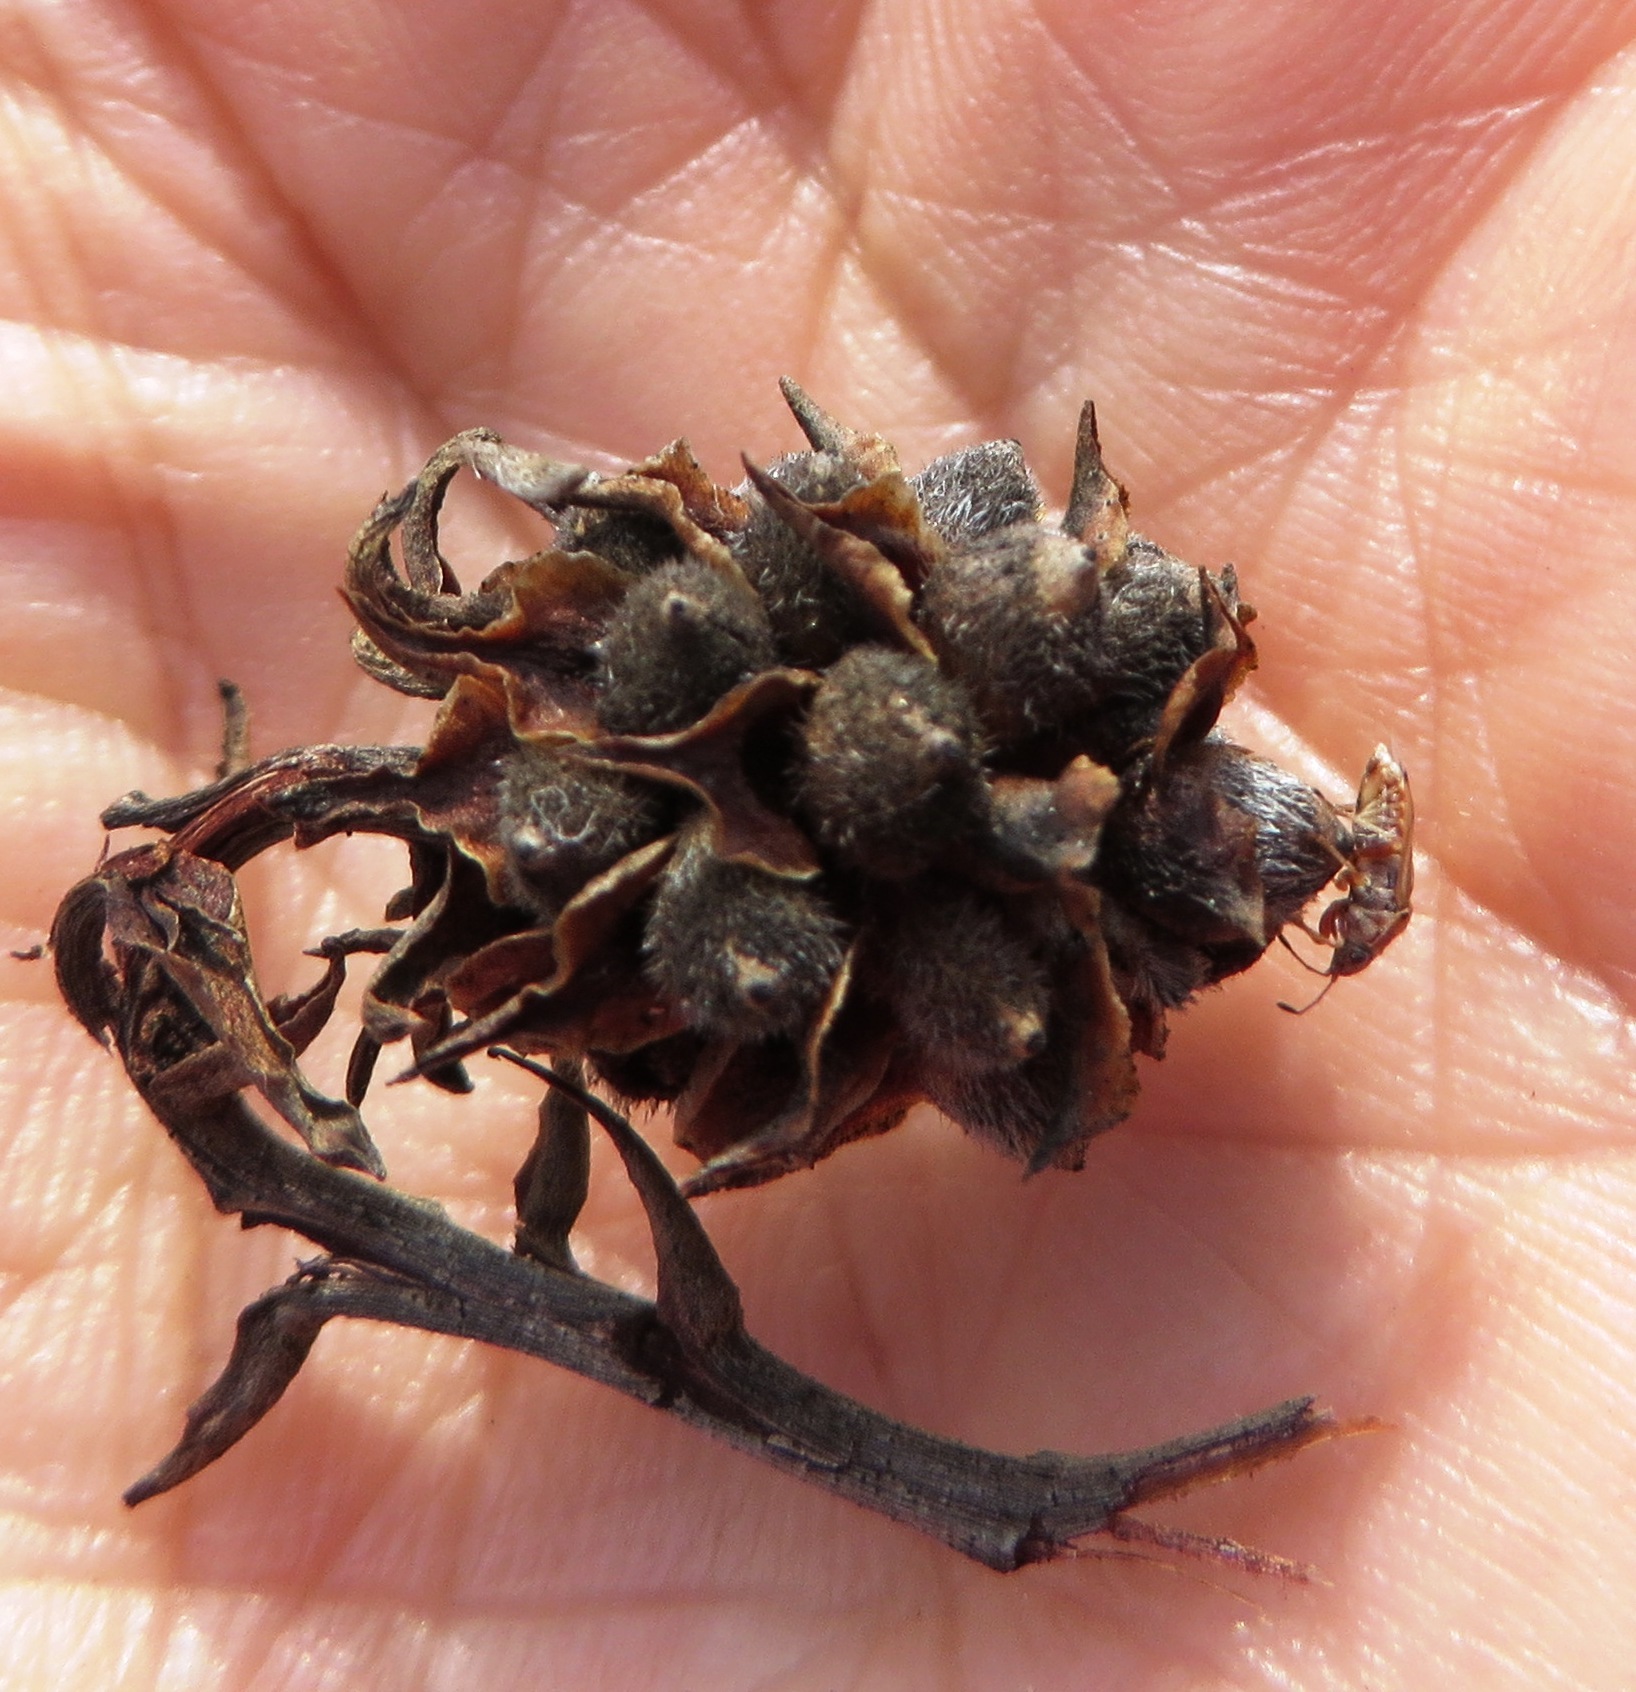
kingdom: Plantae
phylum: Tracheophyta
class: Magnoliopsida
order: Proteales
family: Proteaceae
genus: Serruria
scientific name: Serruria elongata
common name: Long-stalk spiderhead
